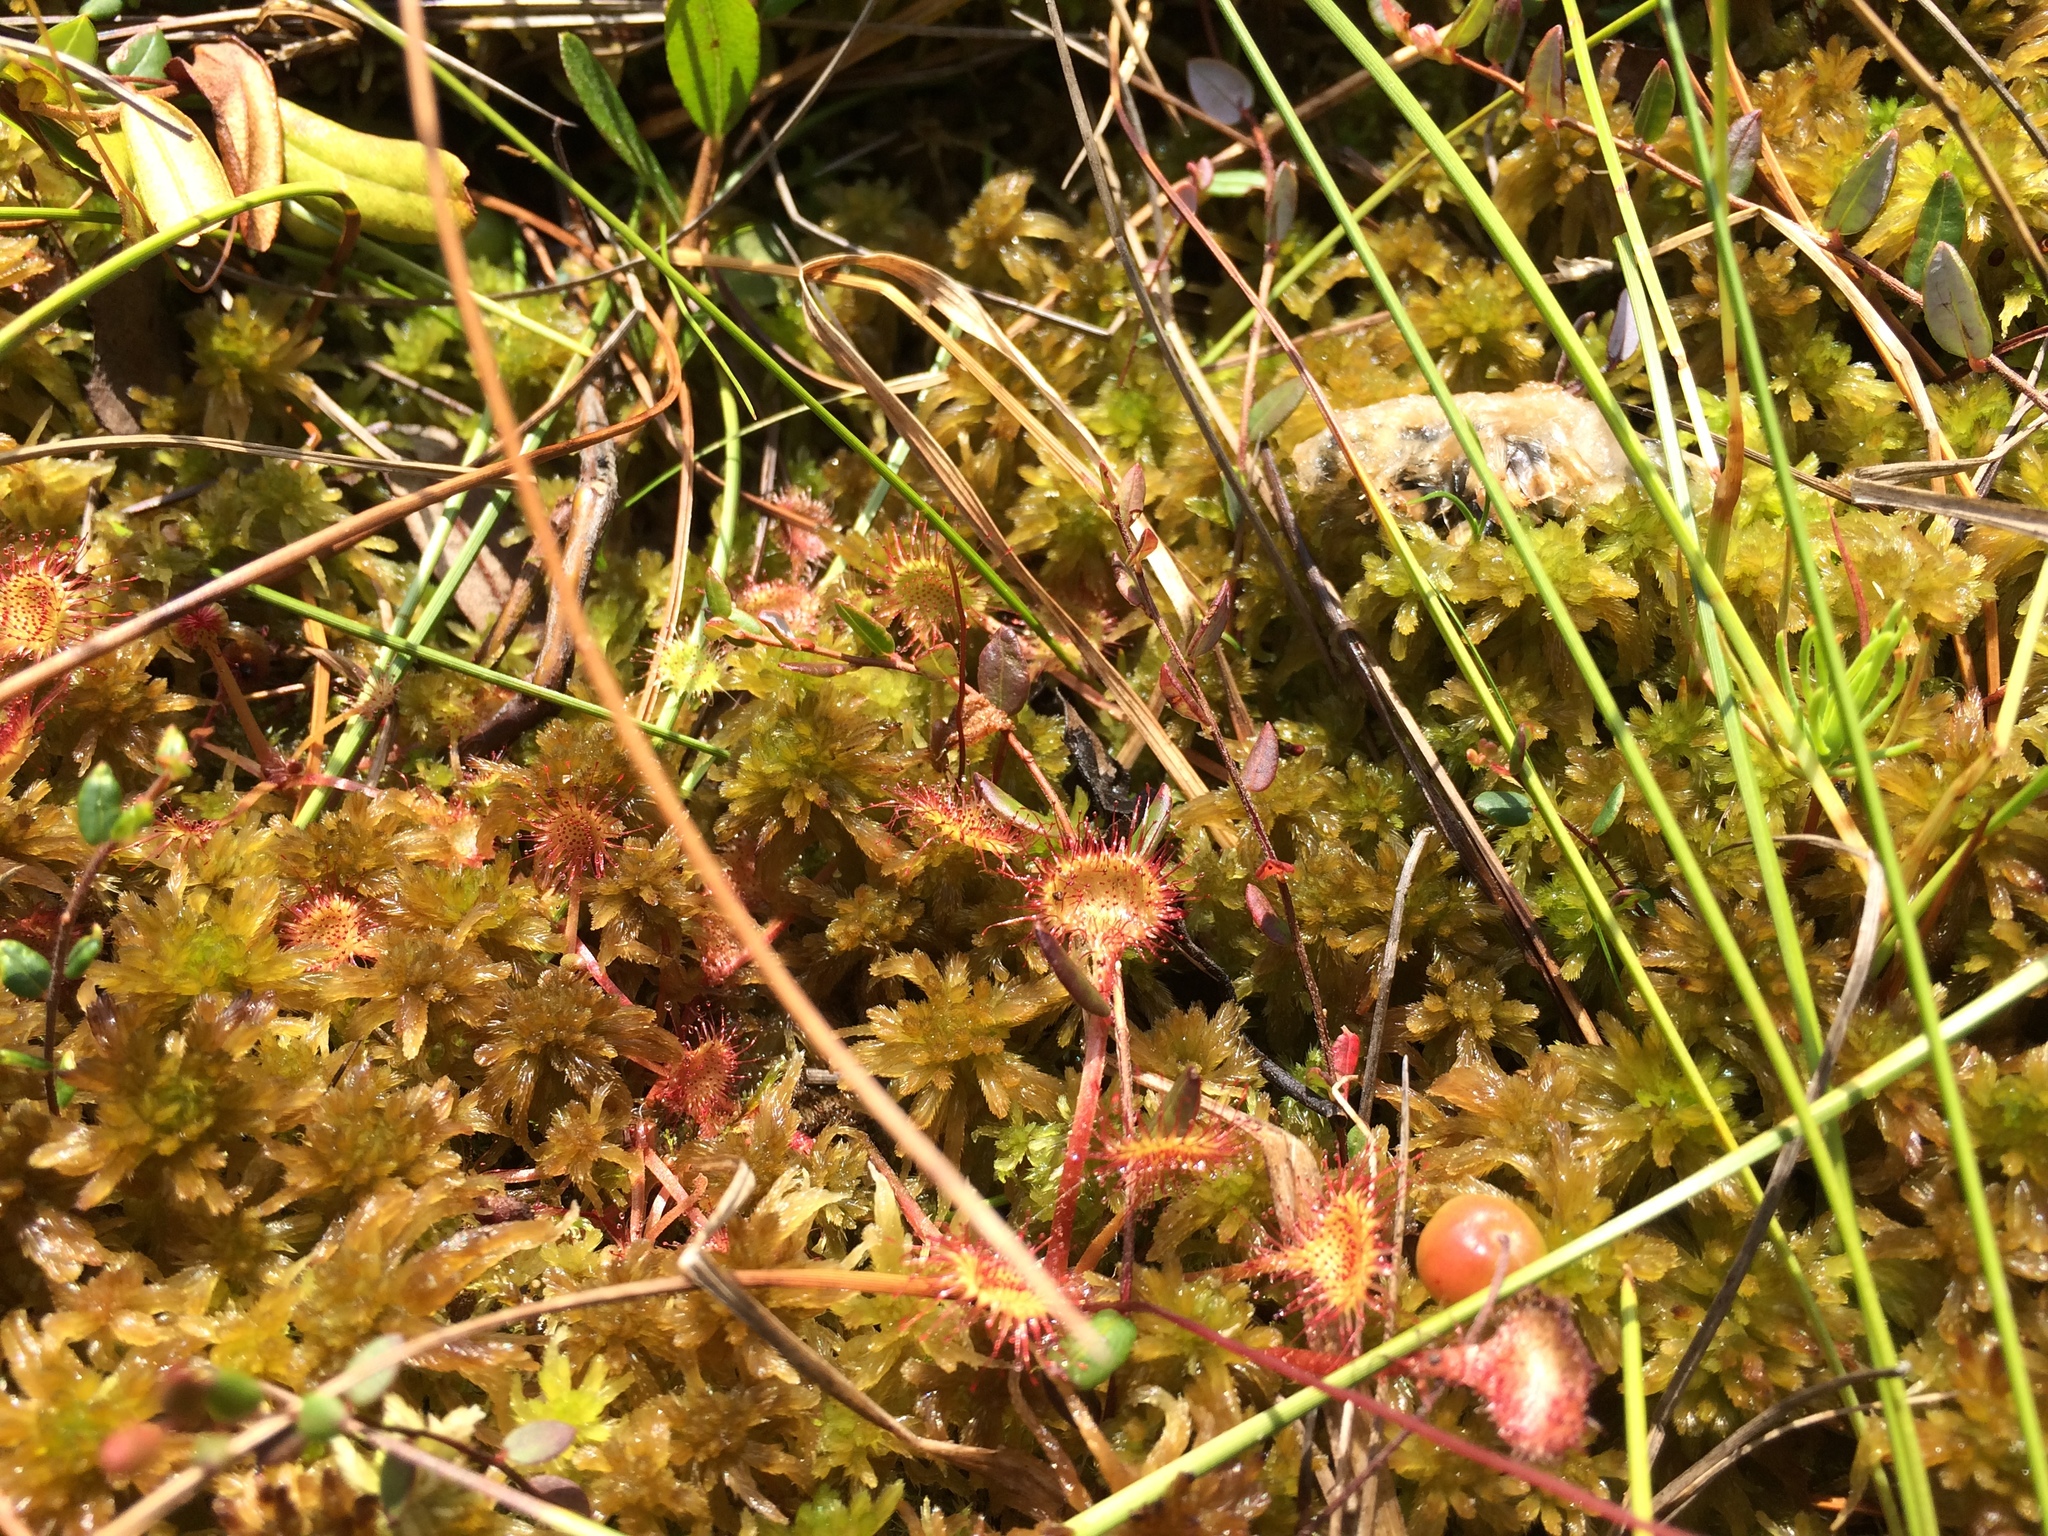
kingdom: Plantae
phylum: Tracheophyta
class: Magnoliopsida
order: Caryophyllales
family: Droseraceae
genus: Drosera
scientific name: Drosera rotundifolia
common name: Round-leaved sundew
